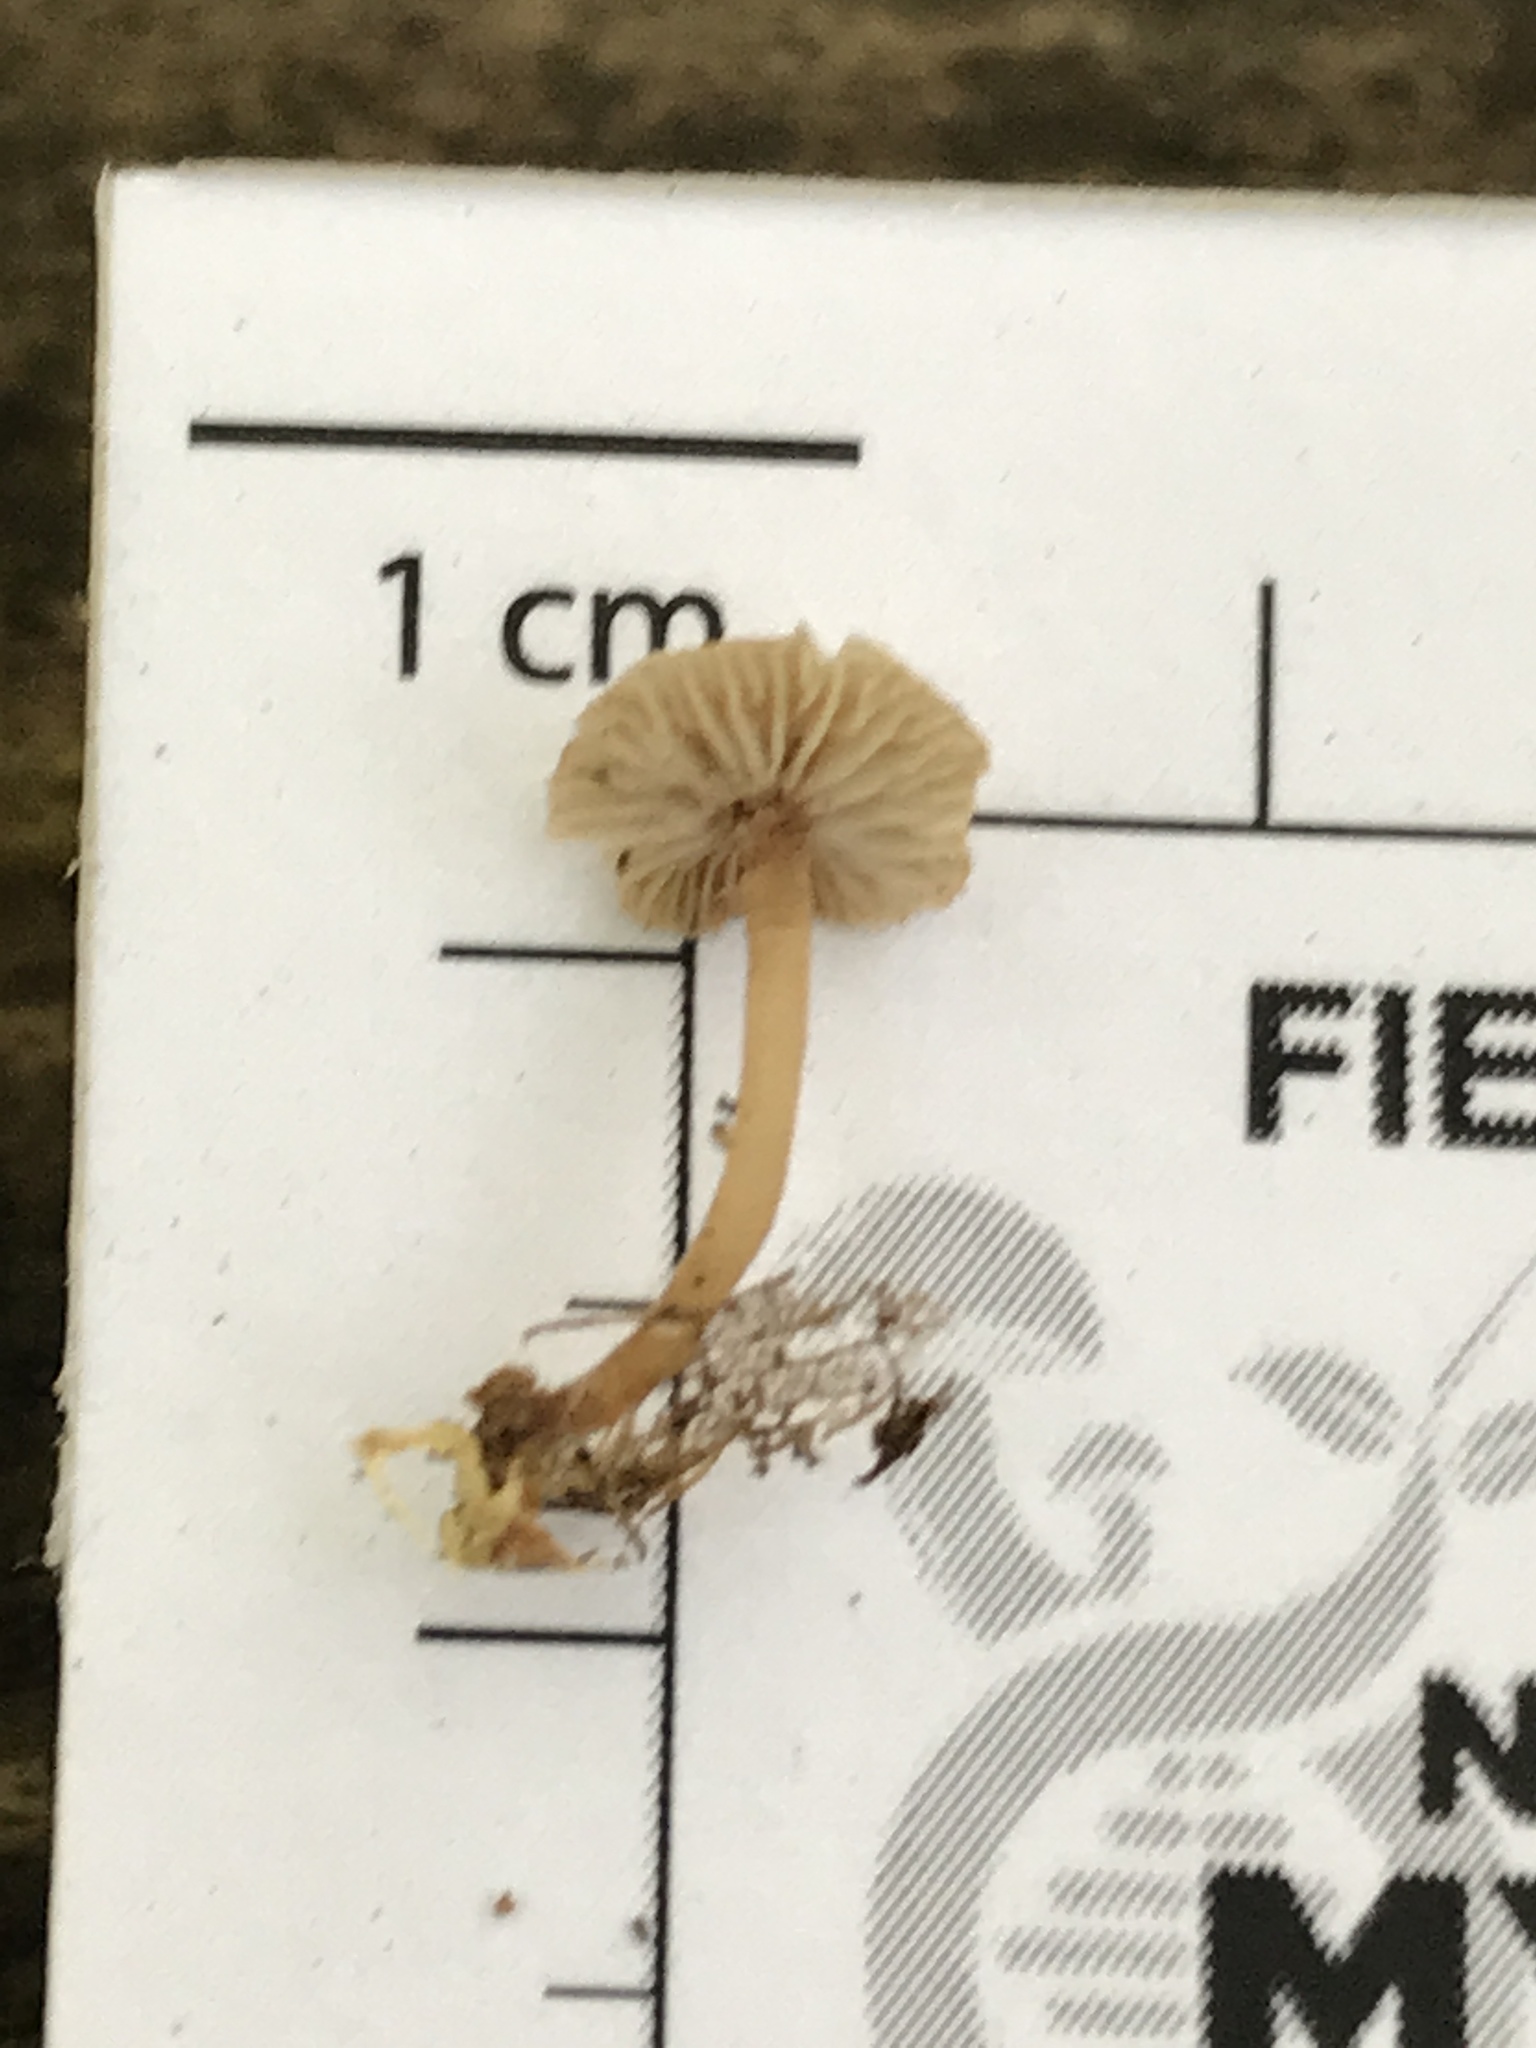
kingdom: Fungi
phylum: Basidiomycota
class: Agaricomycetes
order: Agaricales
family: Omphalotaceae
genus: Gymnopus
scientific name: Gymnopus barbipes
